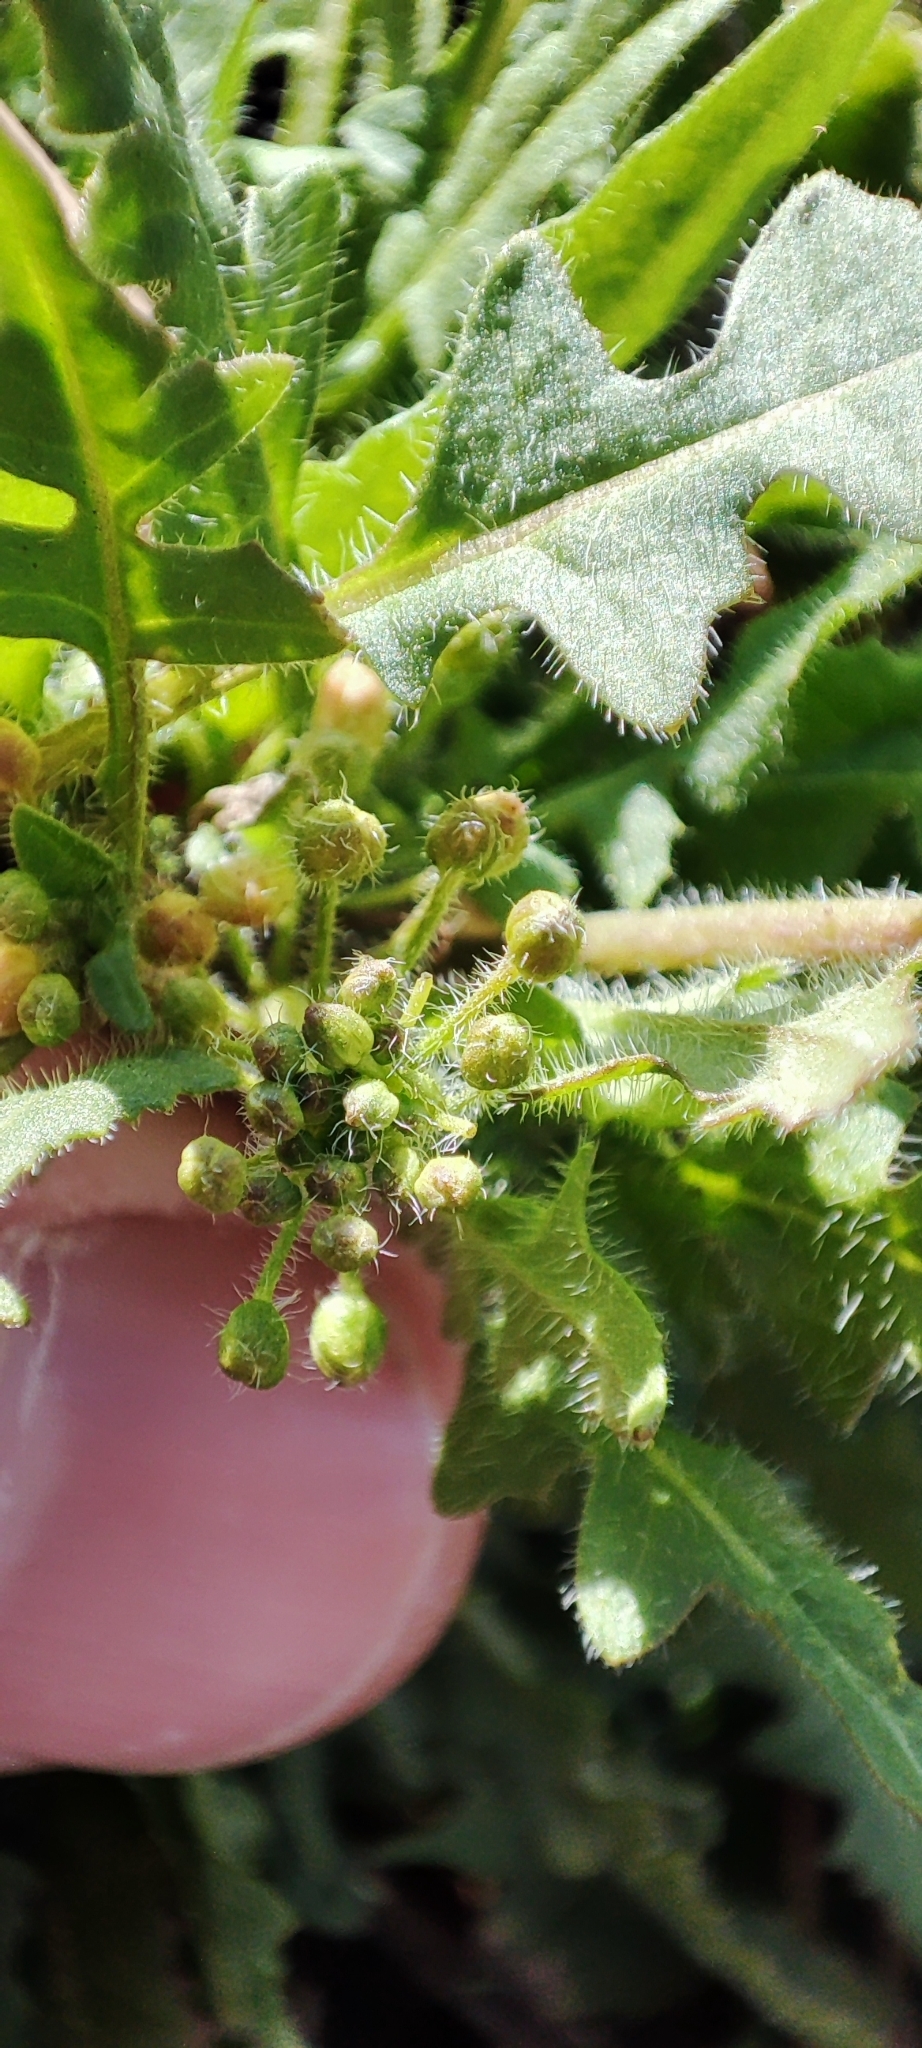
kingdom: Plantae
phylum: Tracheophyta
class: Magnoliopsida
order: Brassicales
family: Brassicaceae
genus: Sisymbrium
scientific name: Sisymbrium loeselii
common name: False london-rocket
